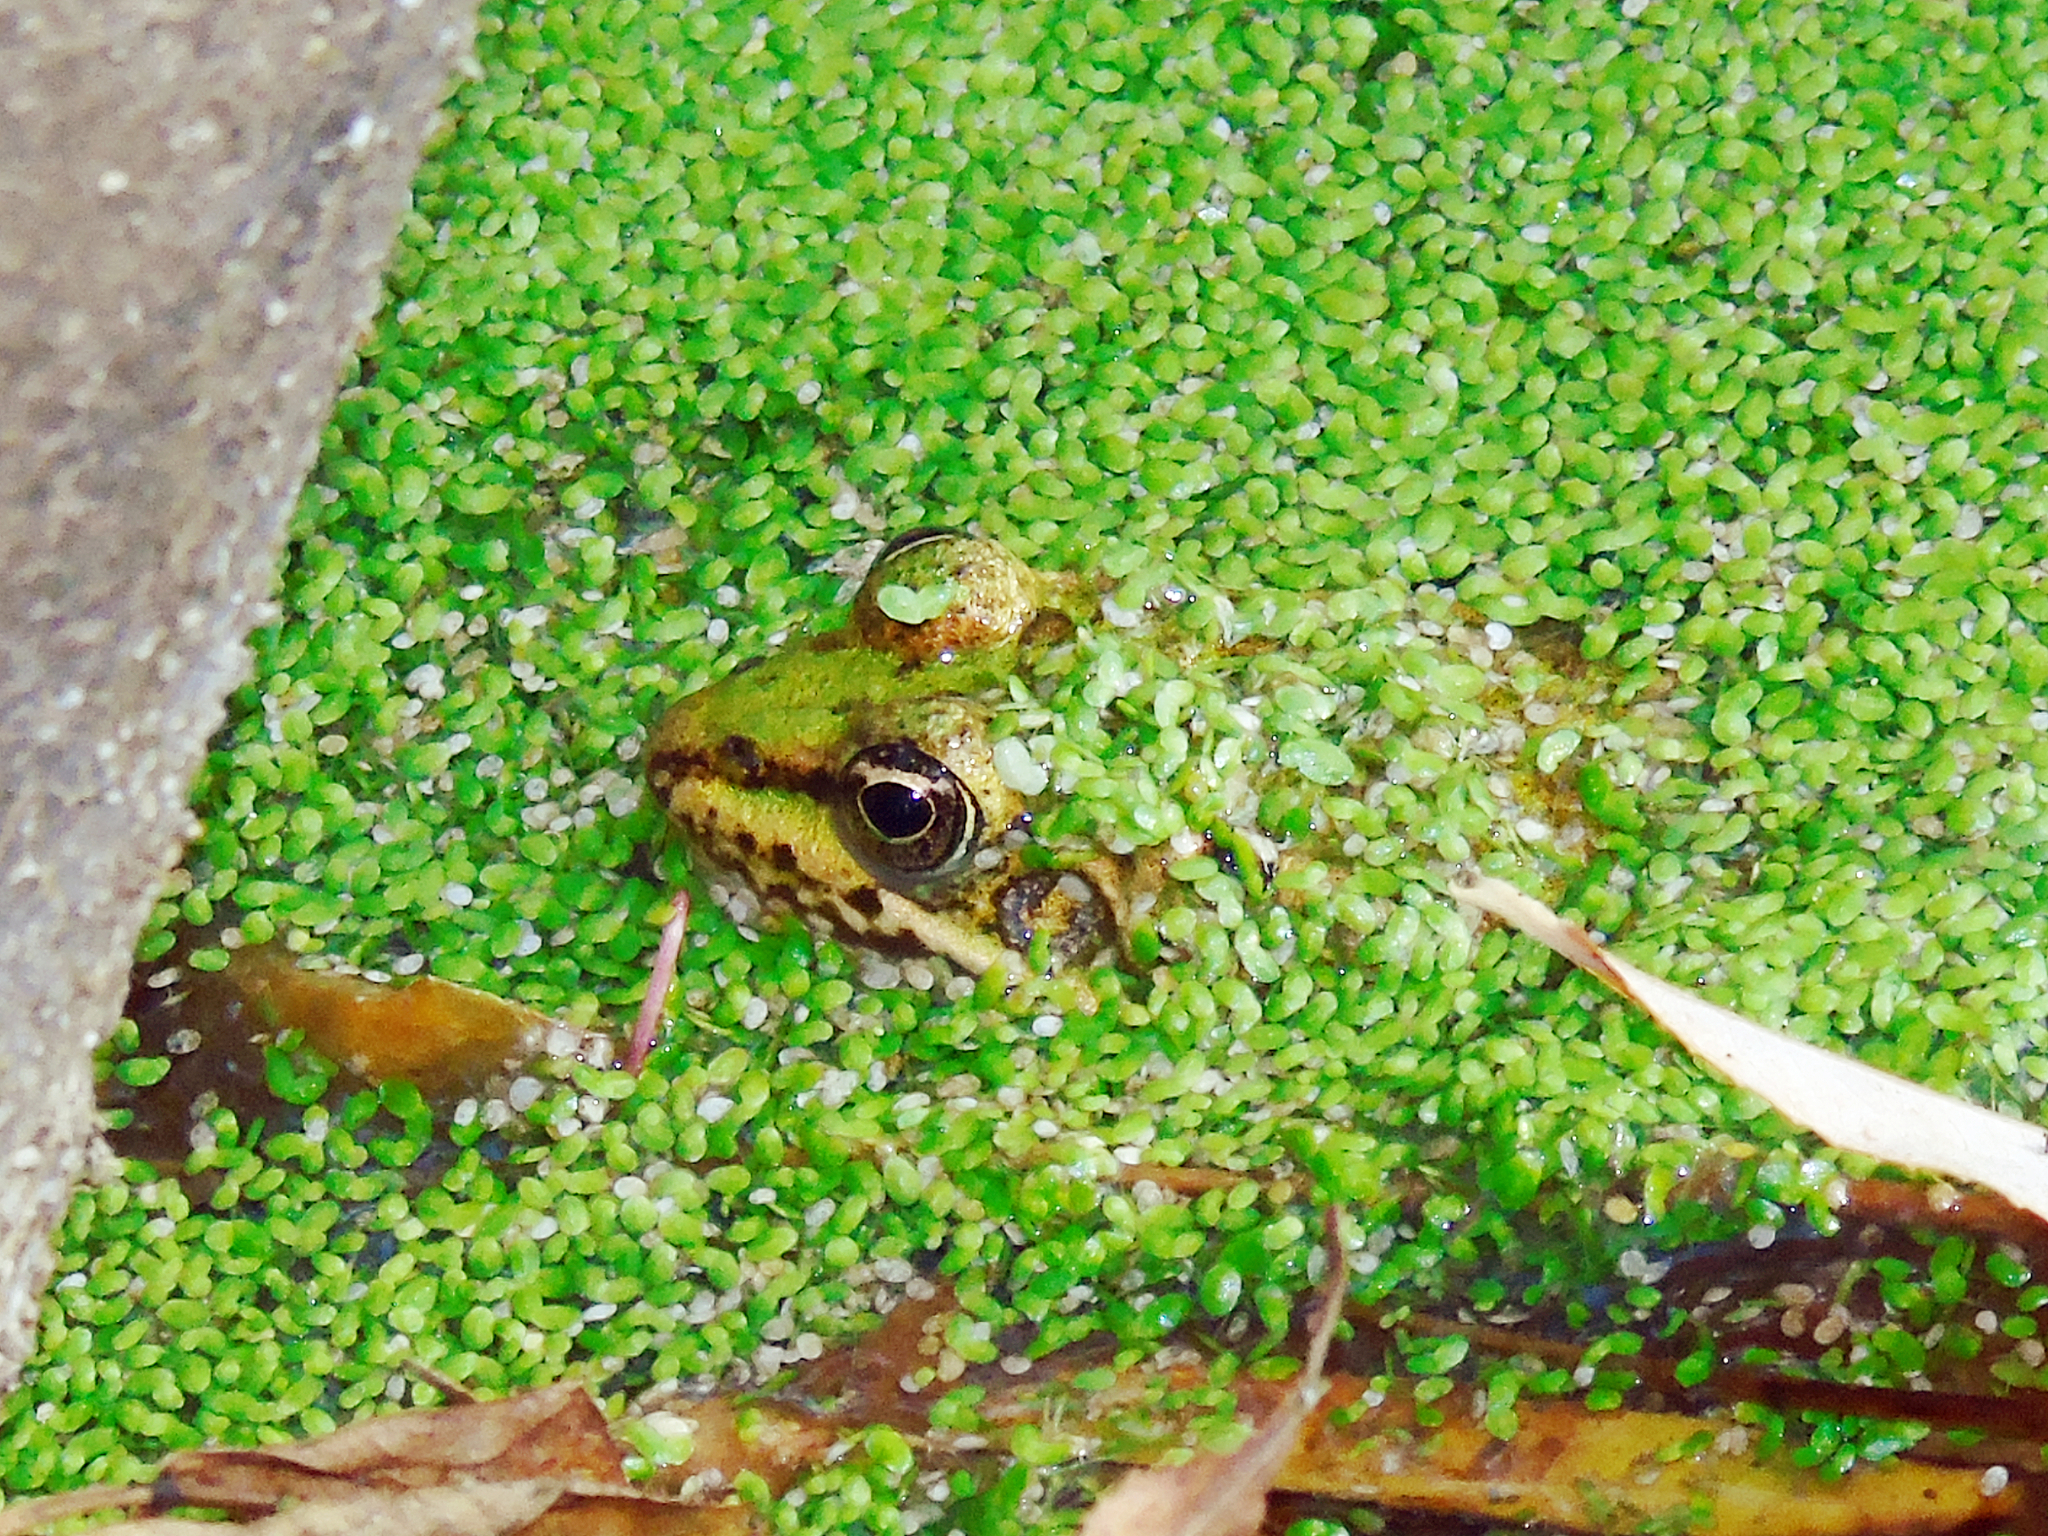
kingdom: Animalia
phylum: Chordata
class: Amphibia
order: Anura
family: Ranidae
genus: Pelophylax
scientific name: Pelophylax ridibundus
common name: Marsh frog
